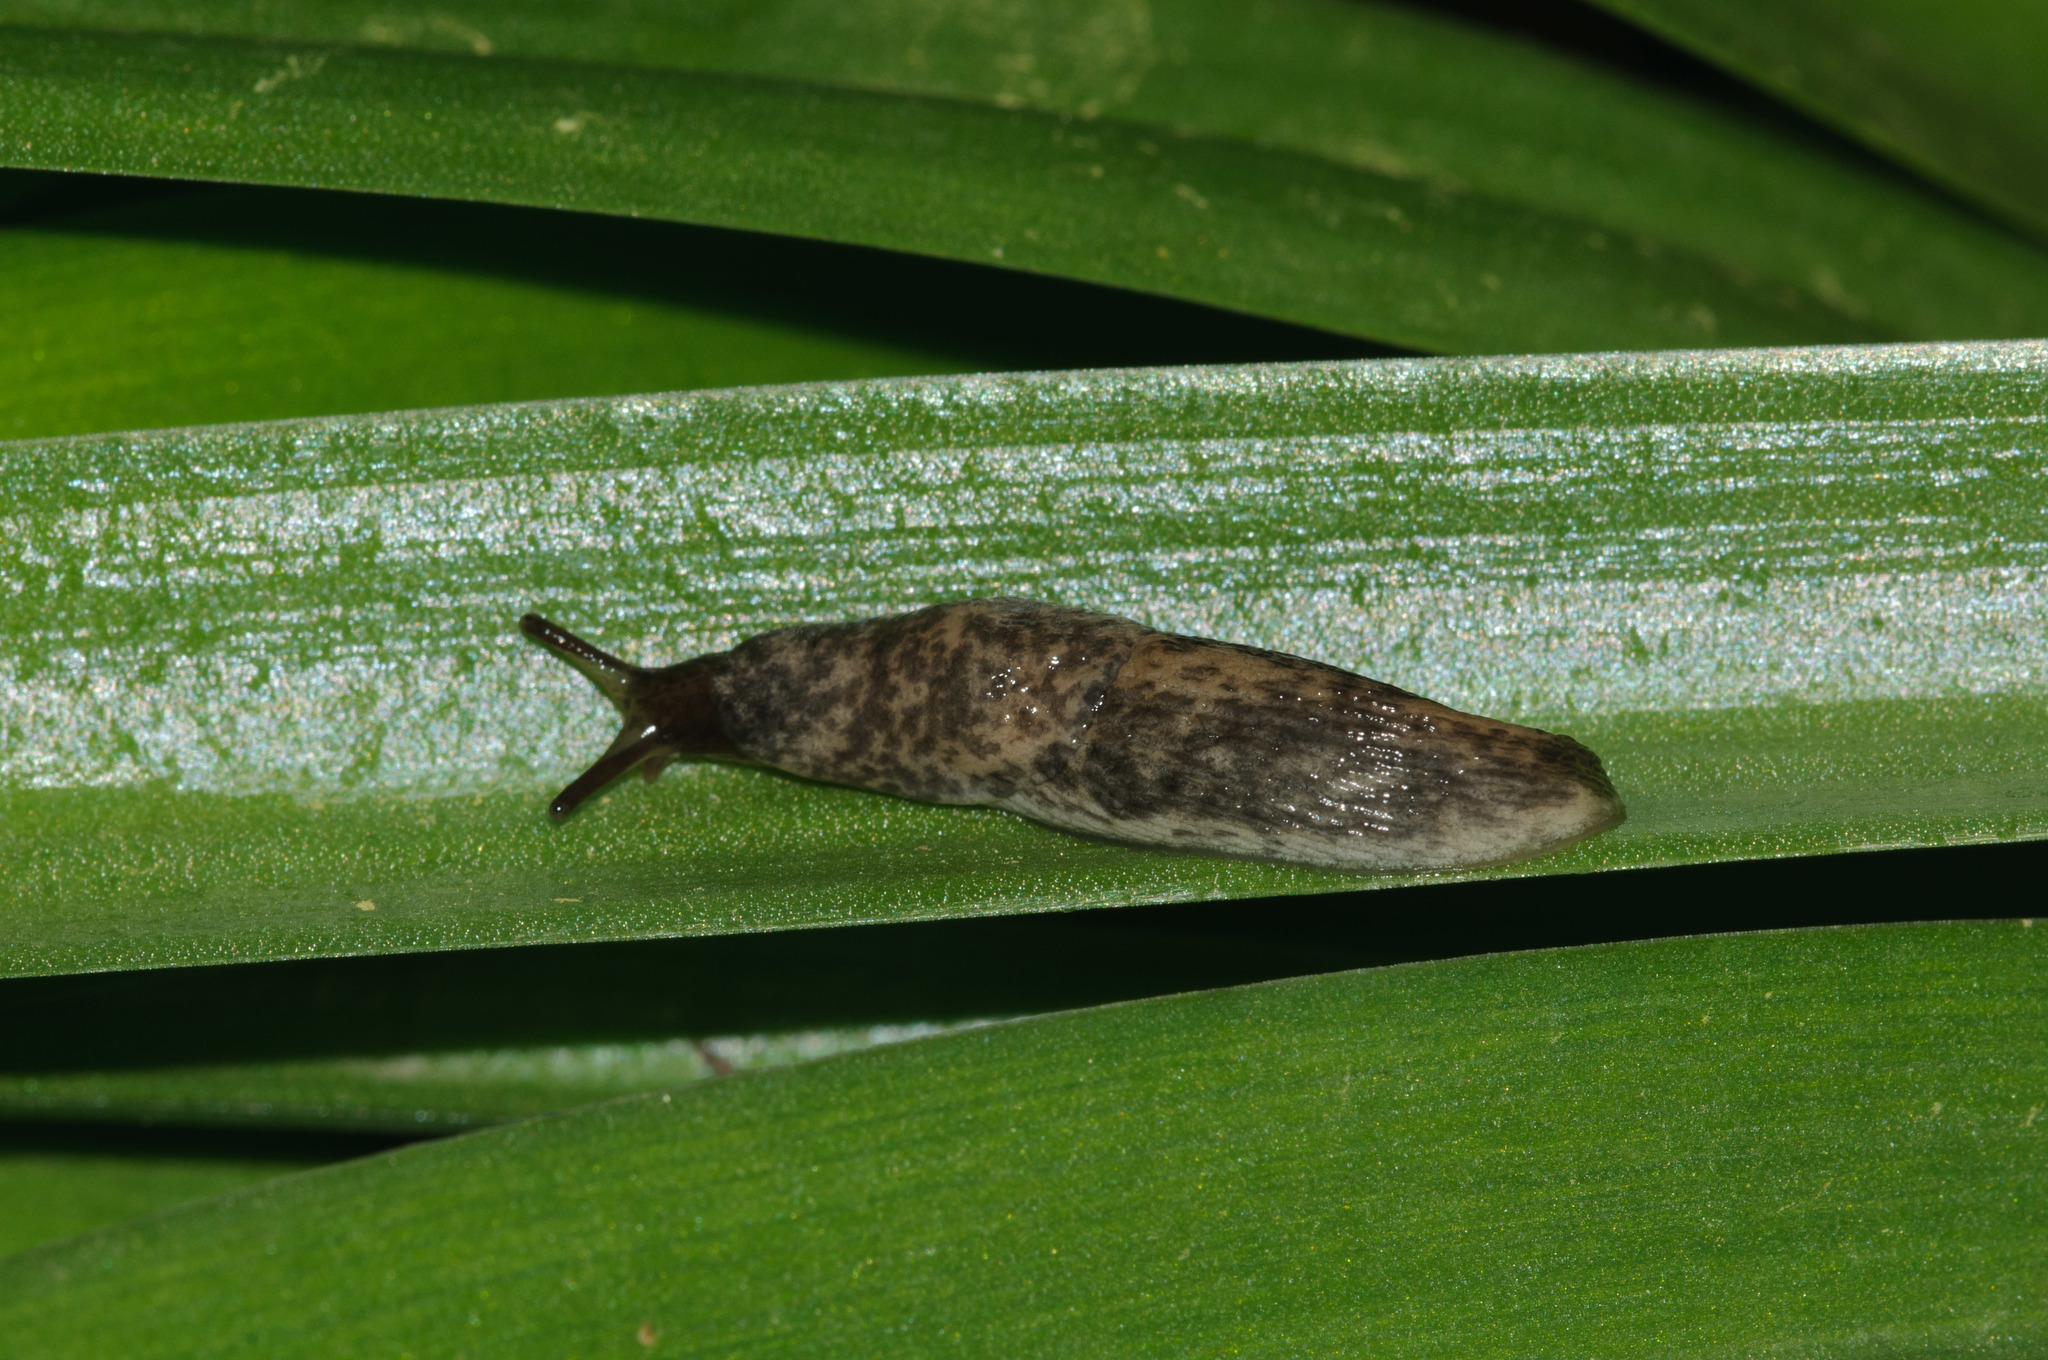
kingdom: Animalia
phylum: Mollusca
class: Gastropoda
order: Stylommatophora
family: Agriolimacidae
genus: Deroceras
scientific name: Deroceras reticulatum
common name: Gray field slug
